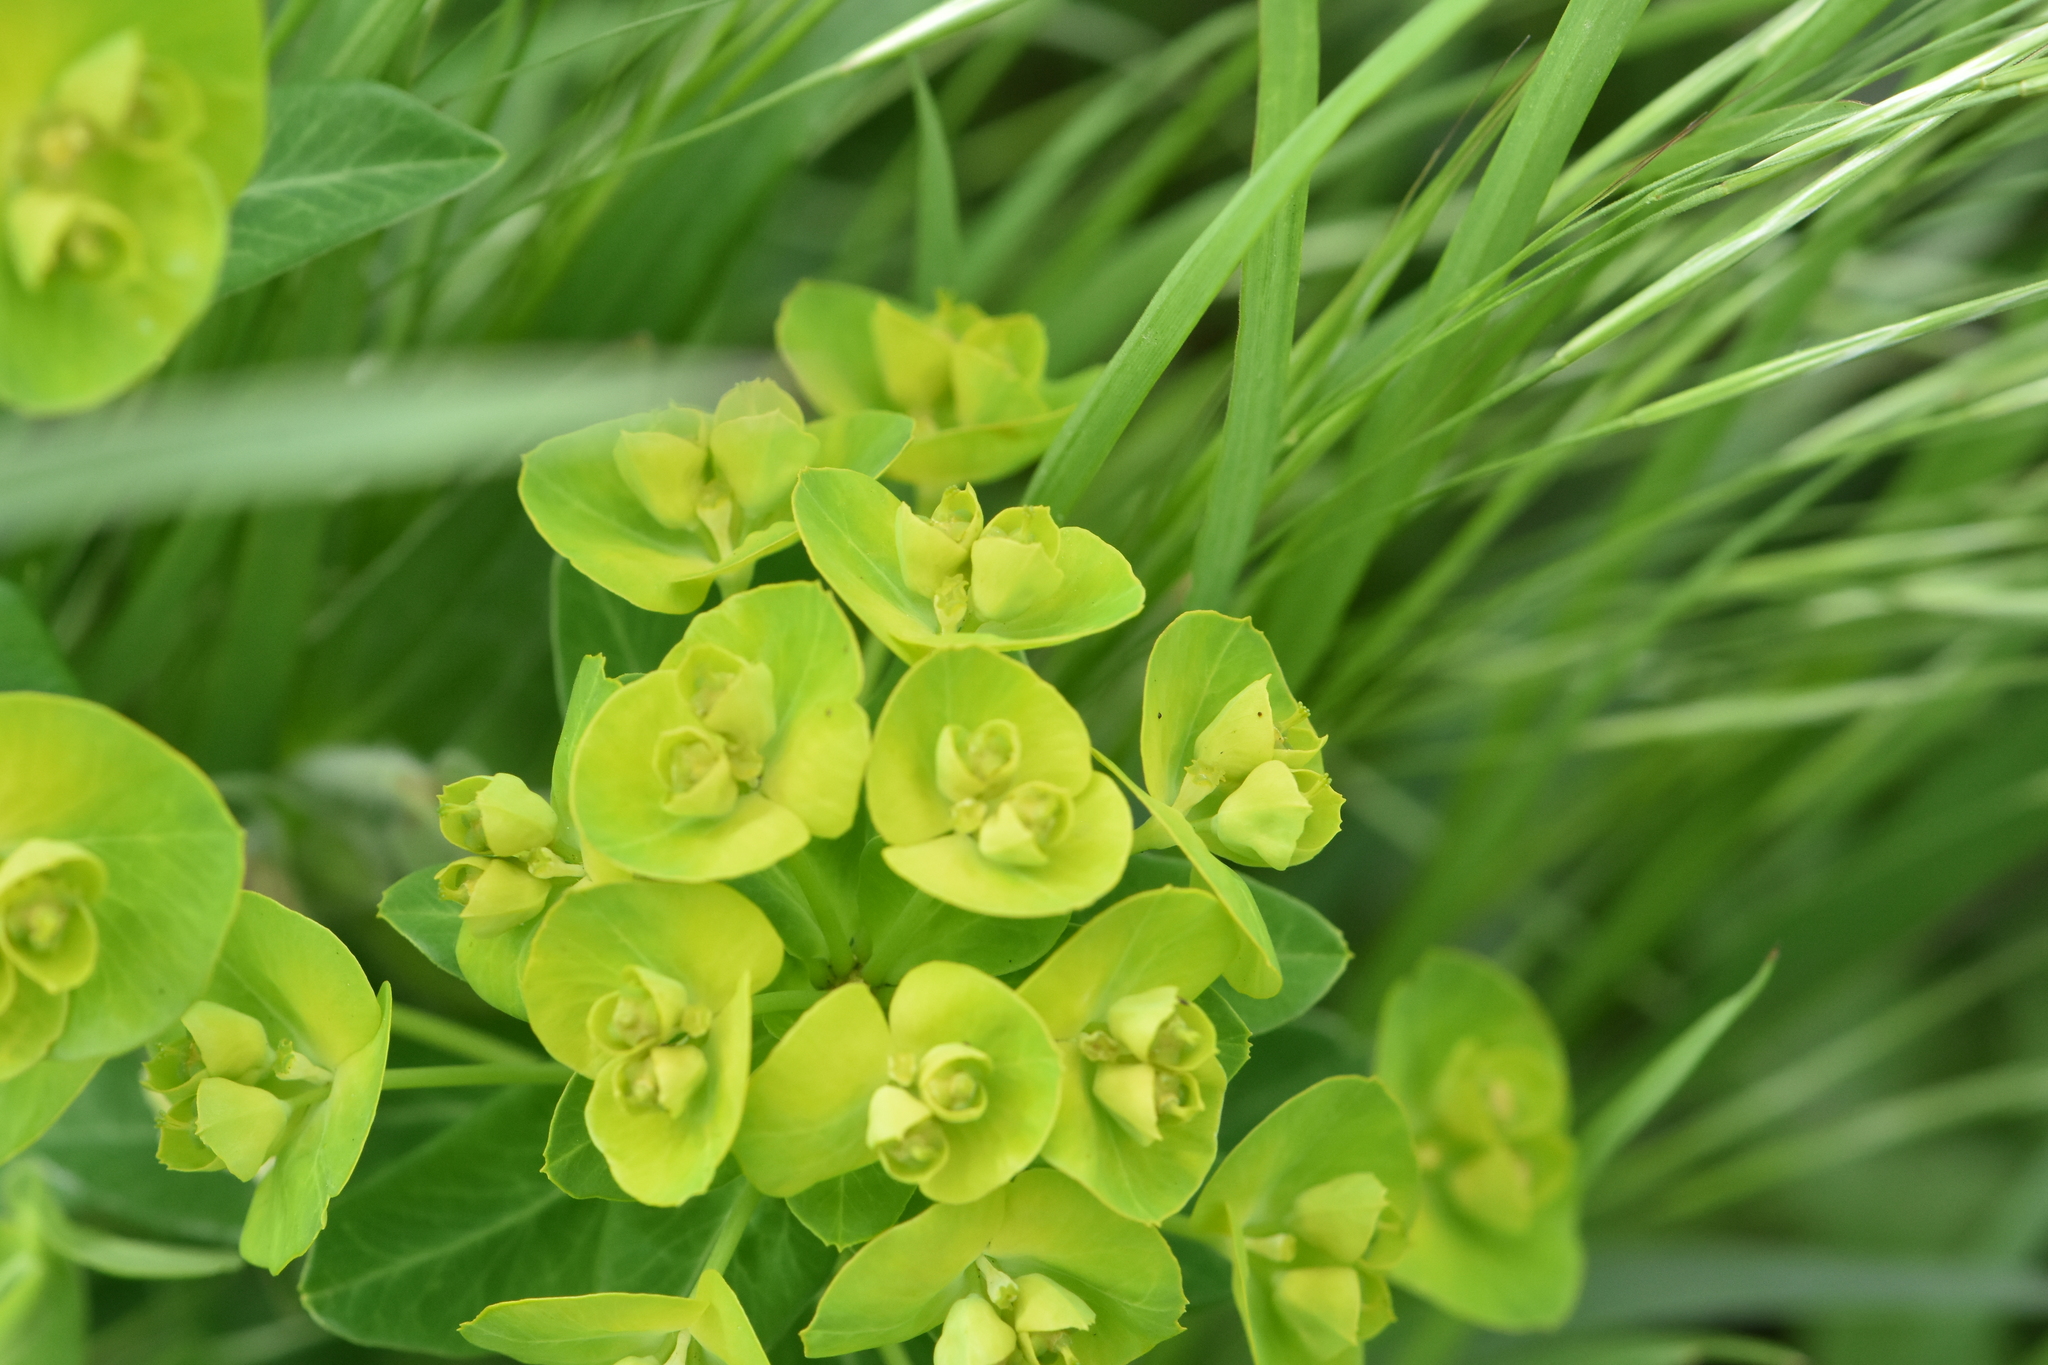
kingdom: Plantae
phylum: Tracheophyta
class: Magnoliopsida
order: Malpighiales
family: Euphorbiaceae
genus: Euphorbia
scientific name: Euphorbia virgata
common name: Leafy spurge
